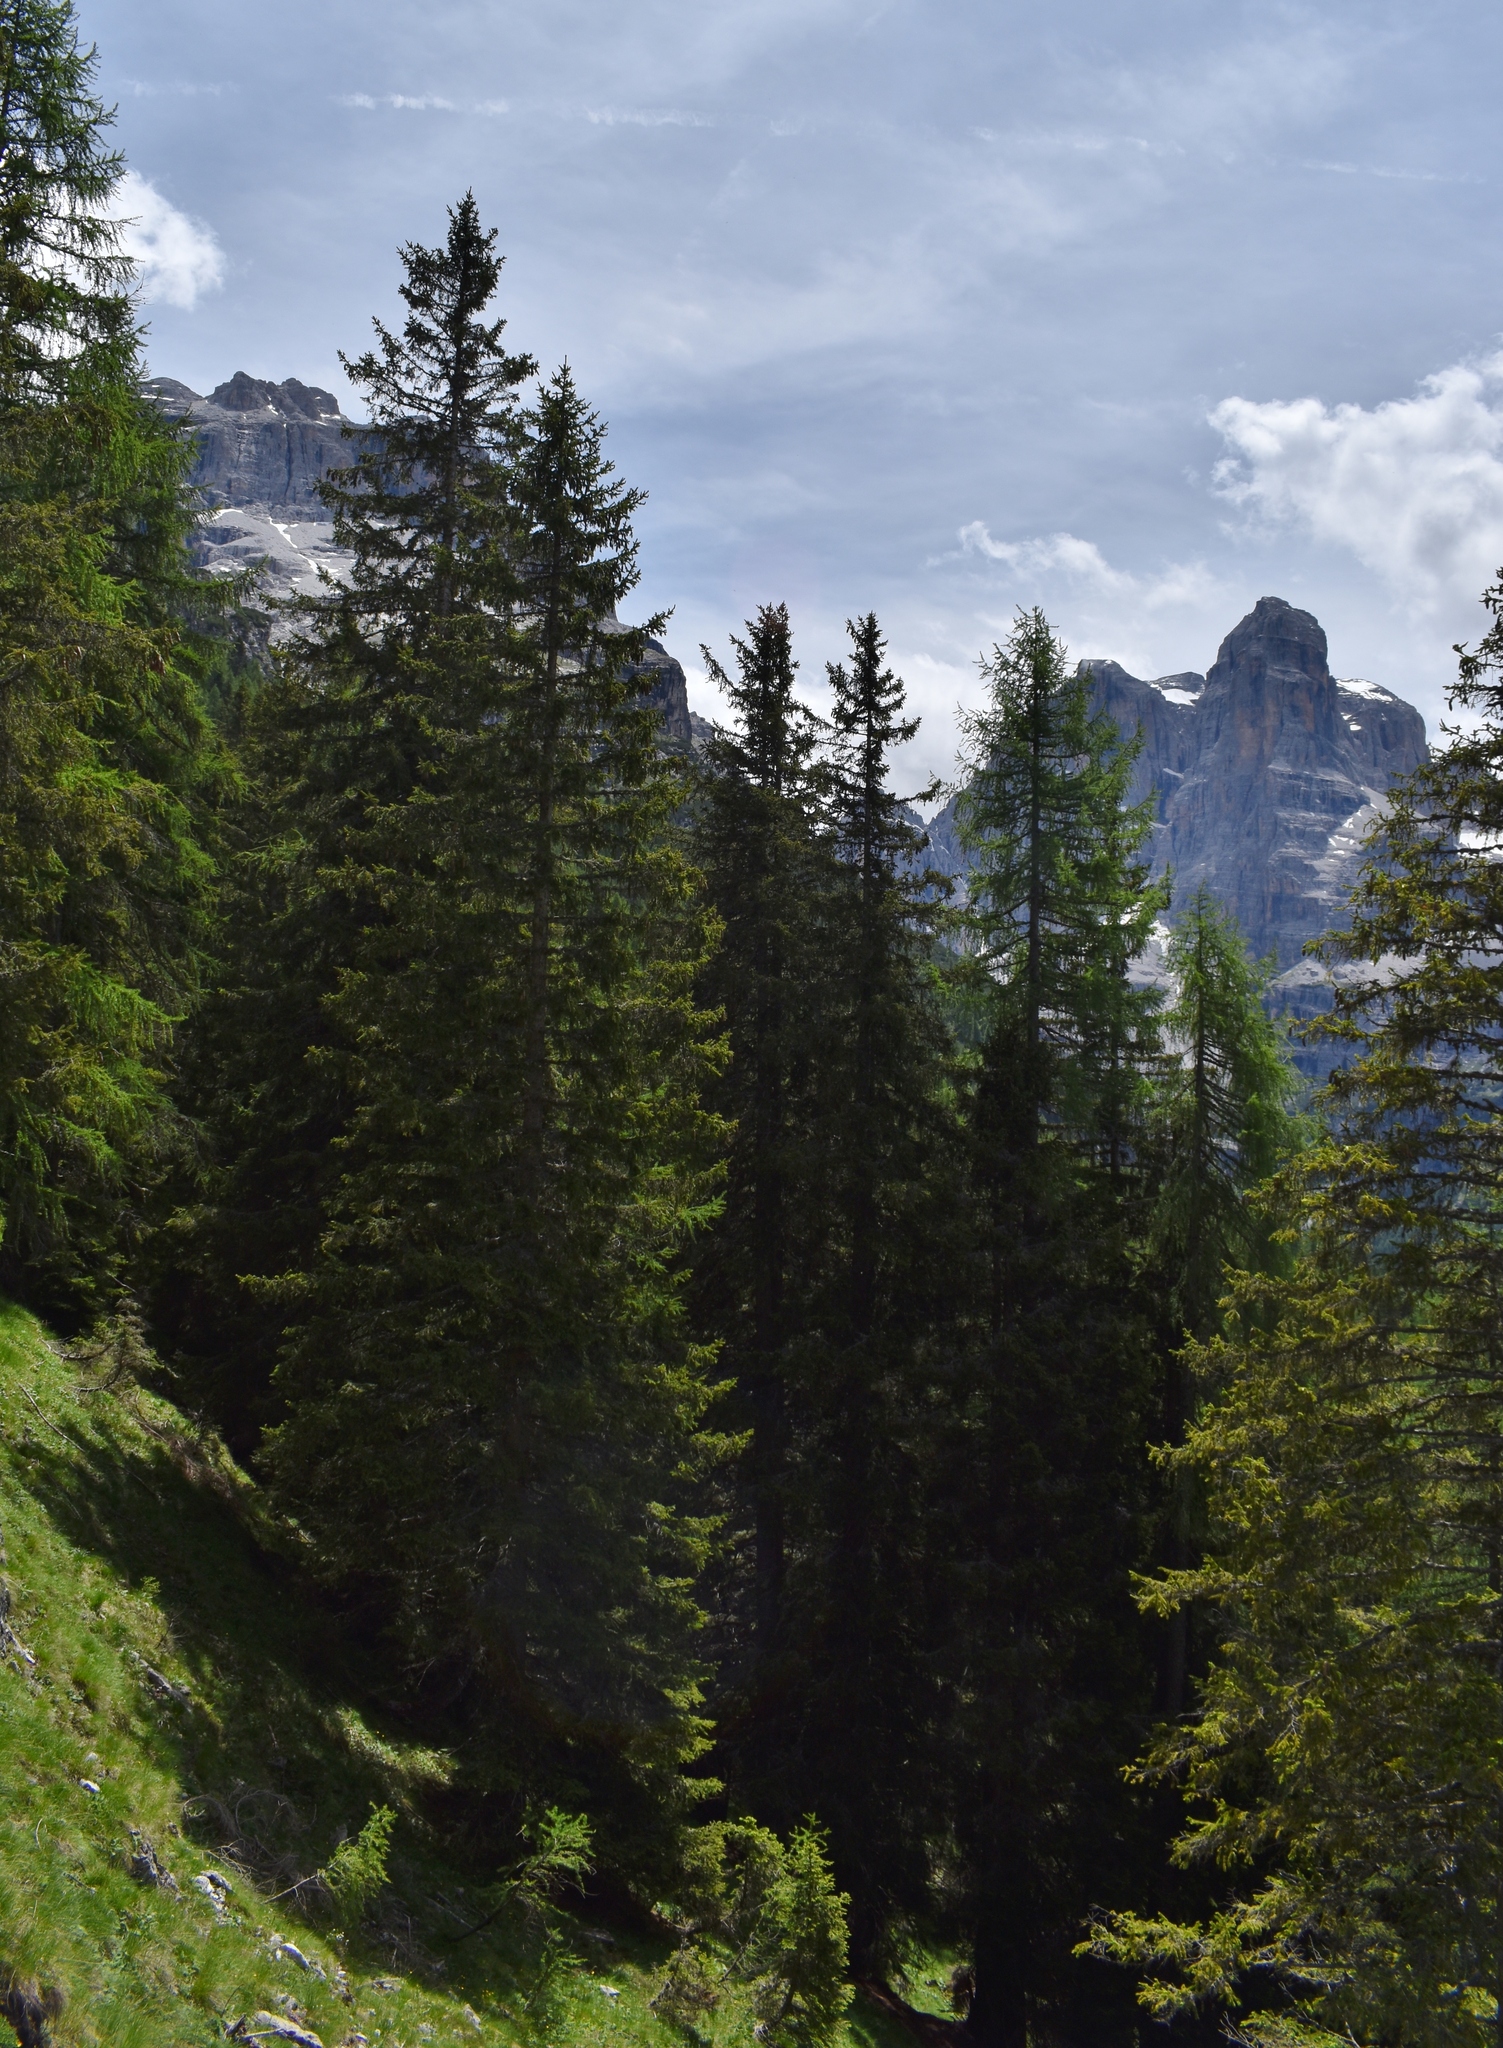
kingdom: Plantae
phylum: Tracheophyta
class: Pinopsida
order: Pinales
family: Pinaceae
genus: Picea
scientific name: Picea abies
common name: Norway spruce
